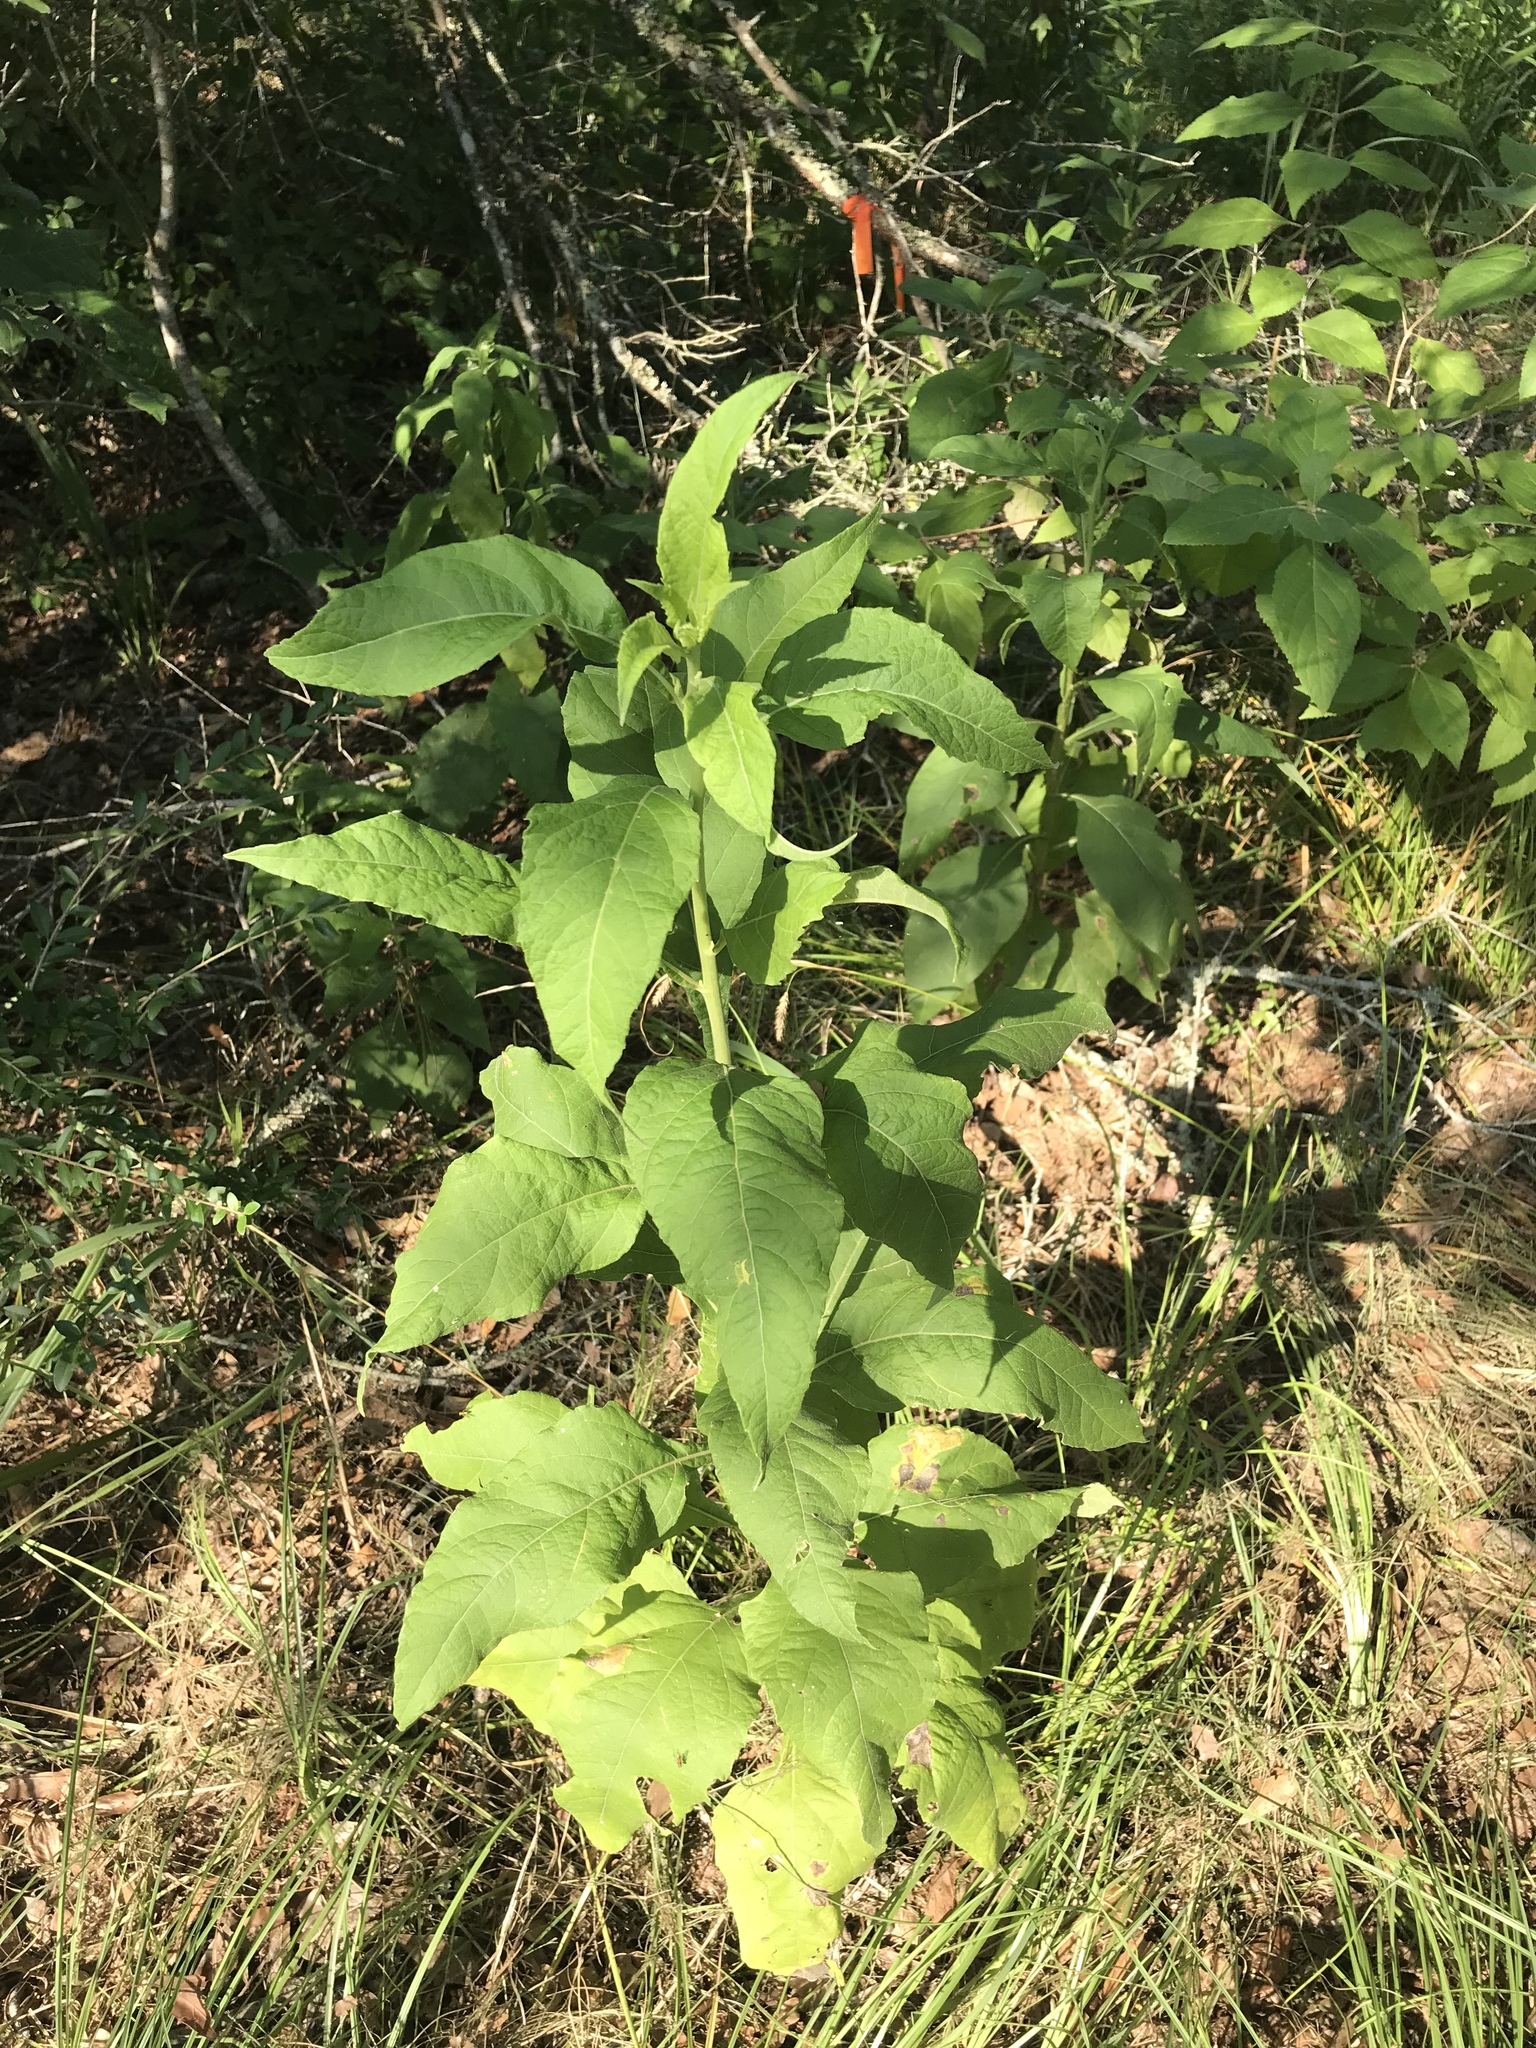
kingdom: Plantae
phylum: Tracheophyta
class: Magnoliopsida
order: Asterales
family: Asteraceae
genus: Verbesina
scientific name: Verbesina virginica
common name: Frostweed
